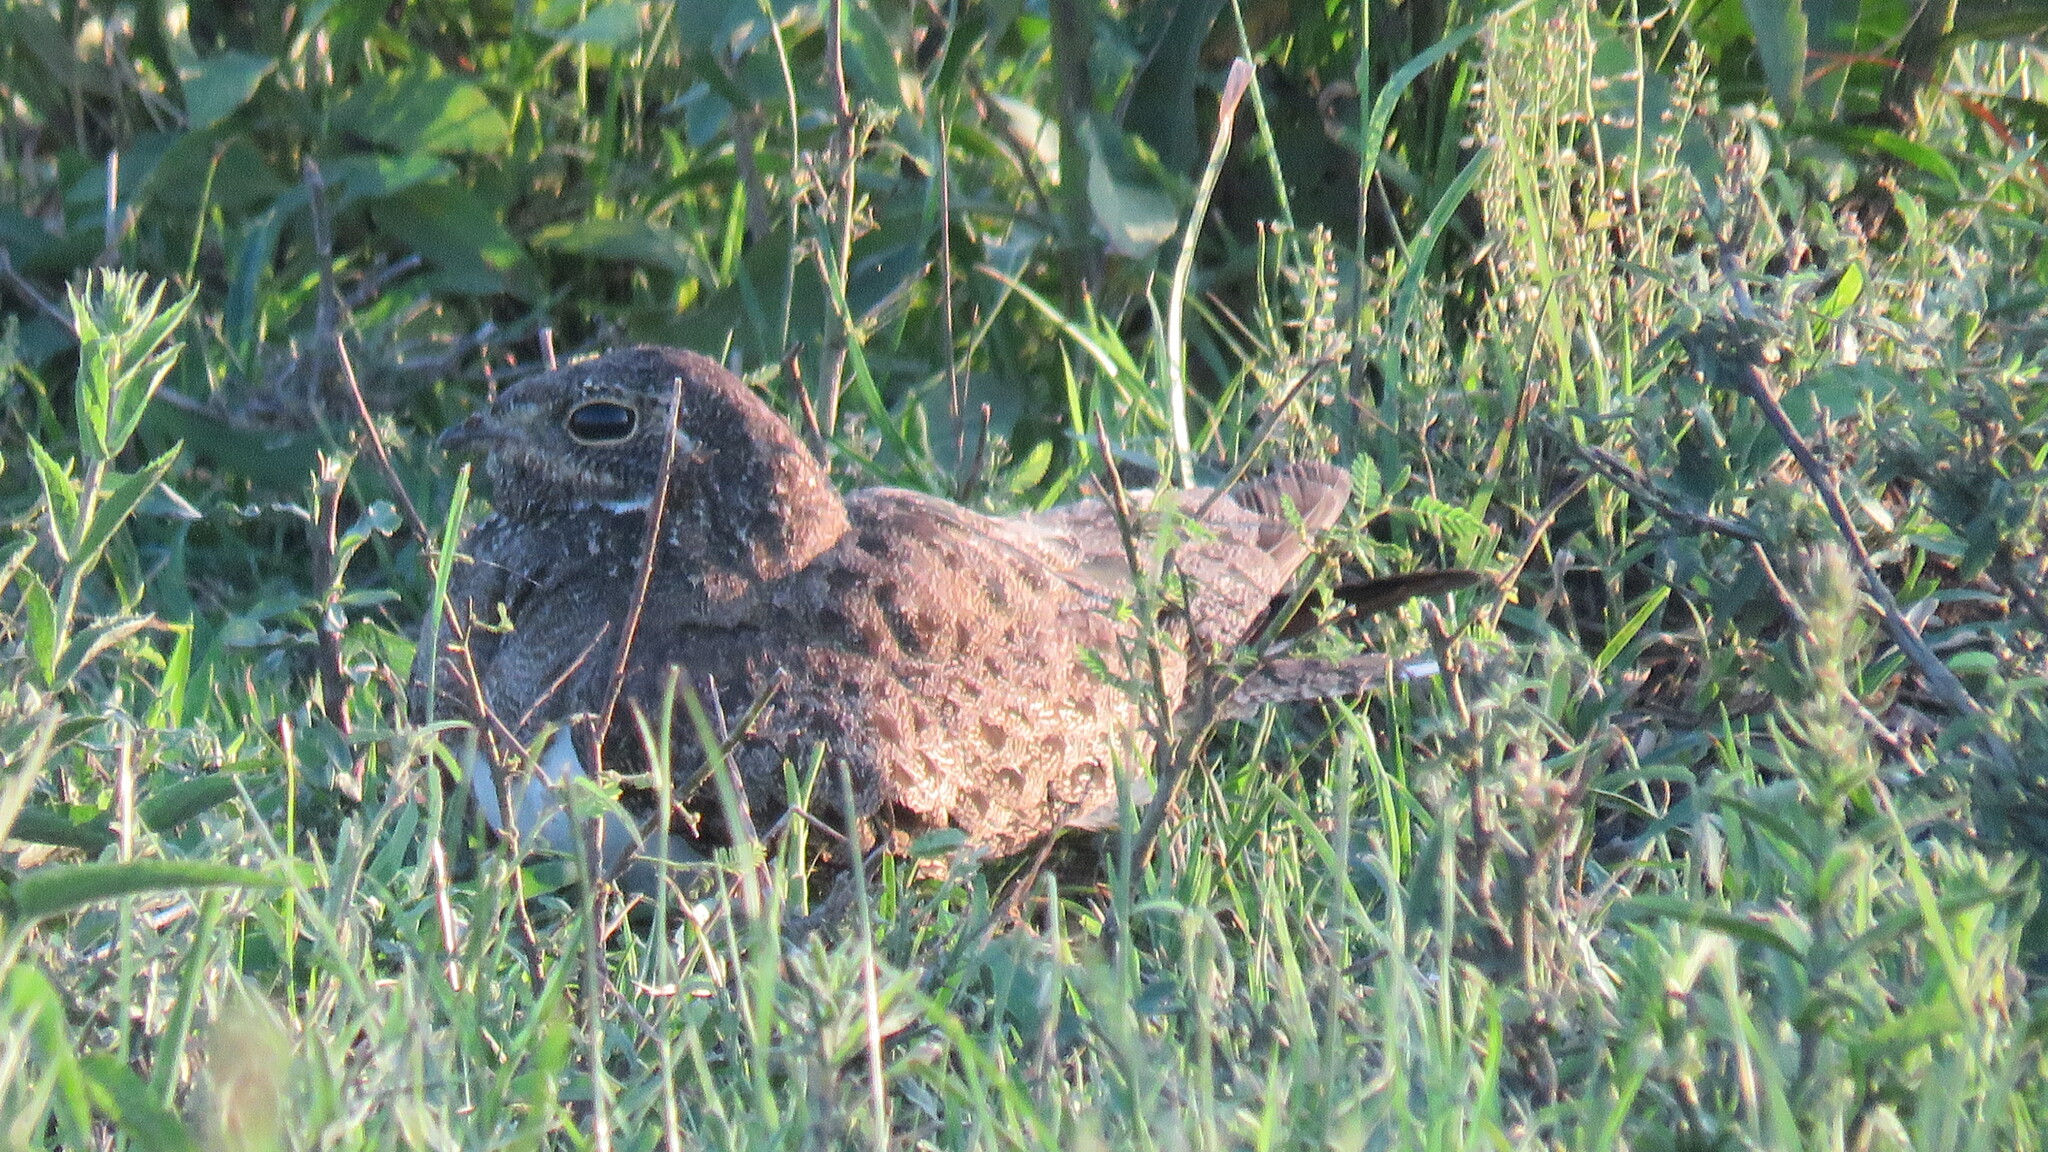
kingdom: Animalia
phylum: Chordata
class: Aves
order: Caprimulgiformes
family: Caprimulgidae
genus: Chordeiles
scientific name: Chordeiles nacunda
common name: Nacunda nighthawk
